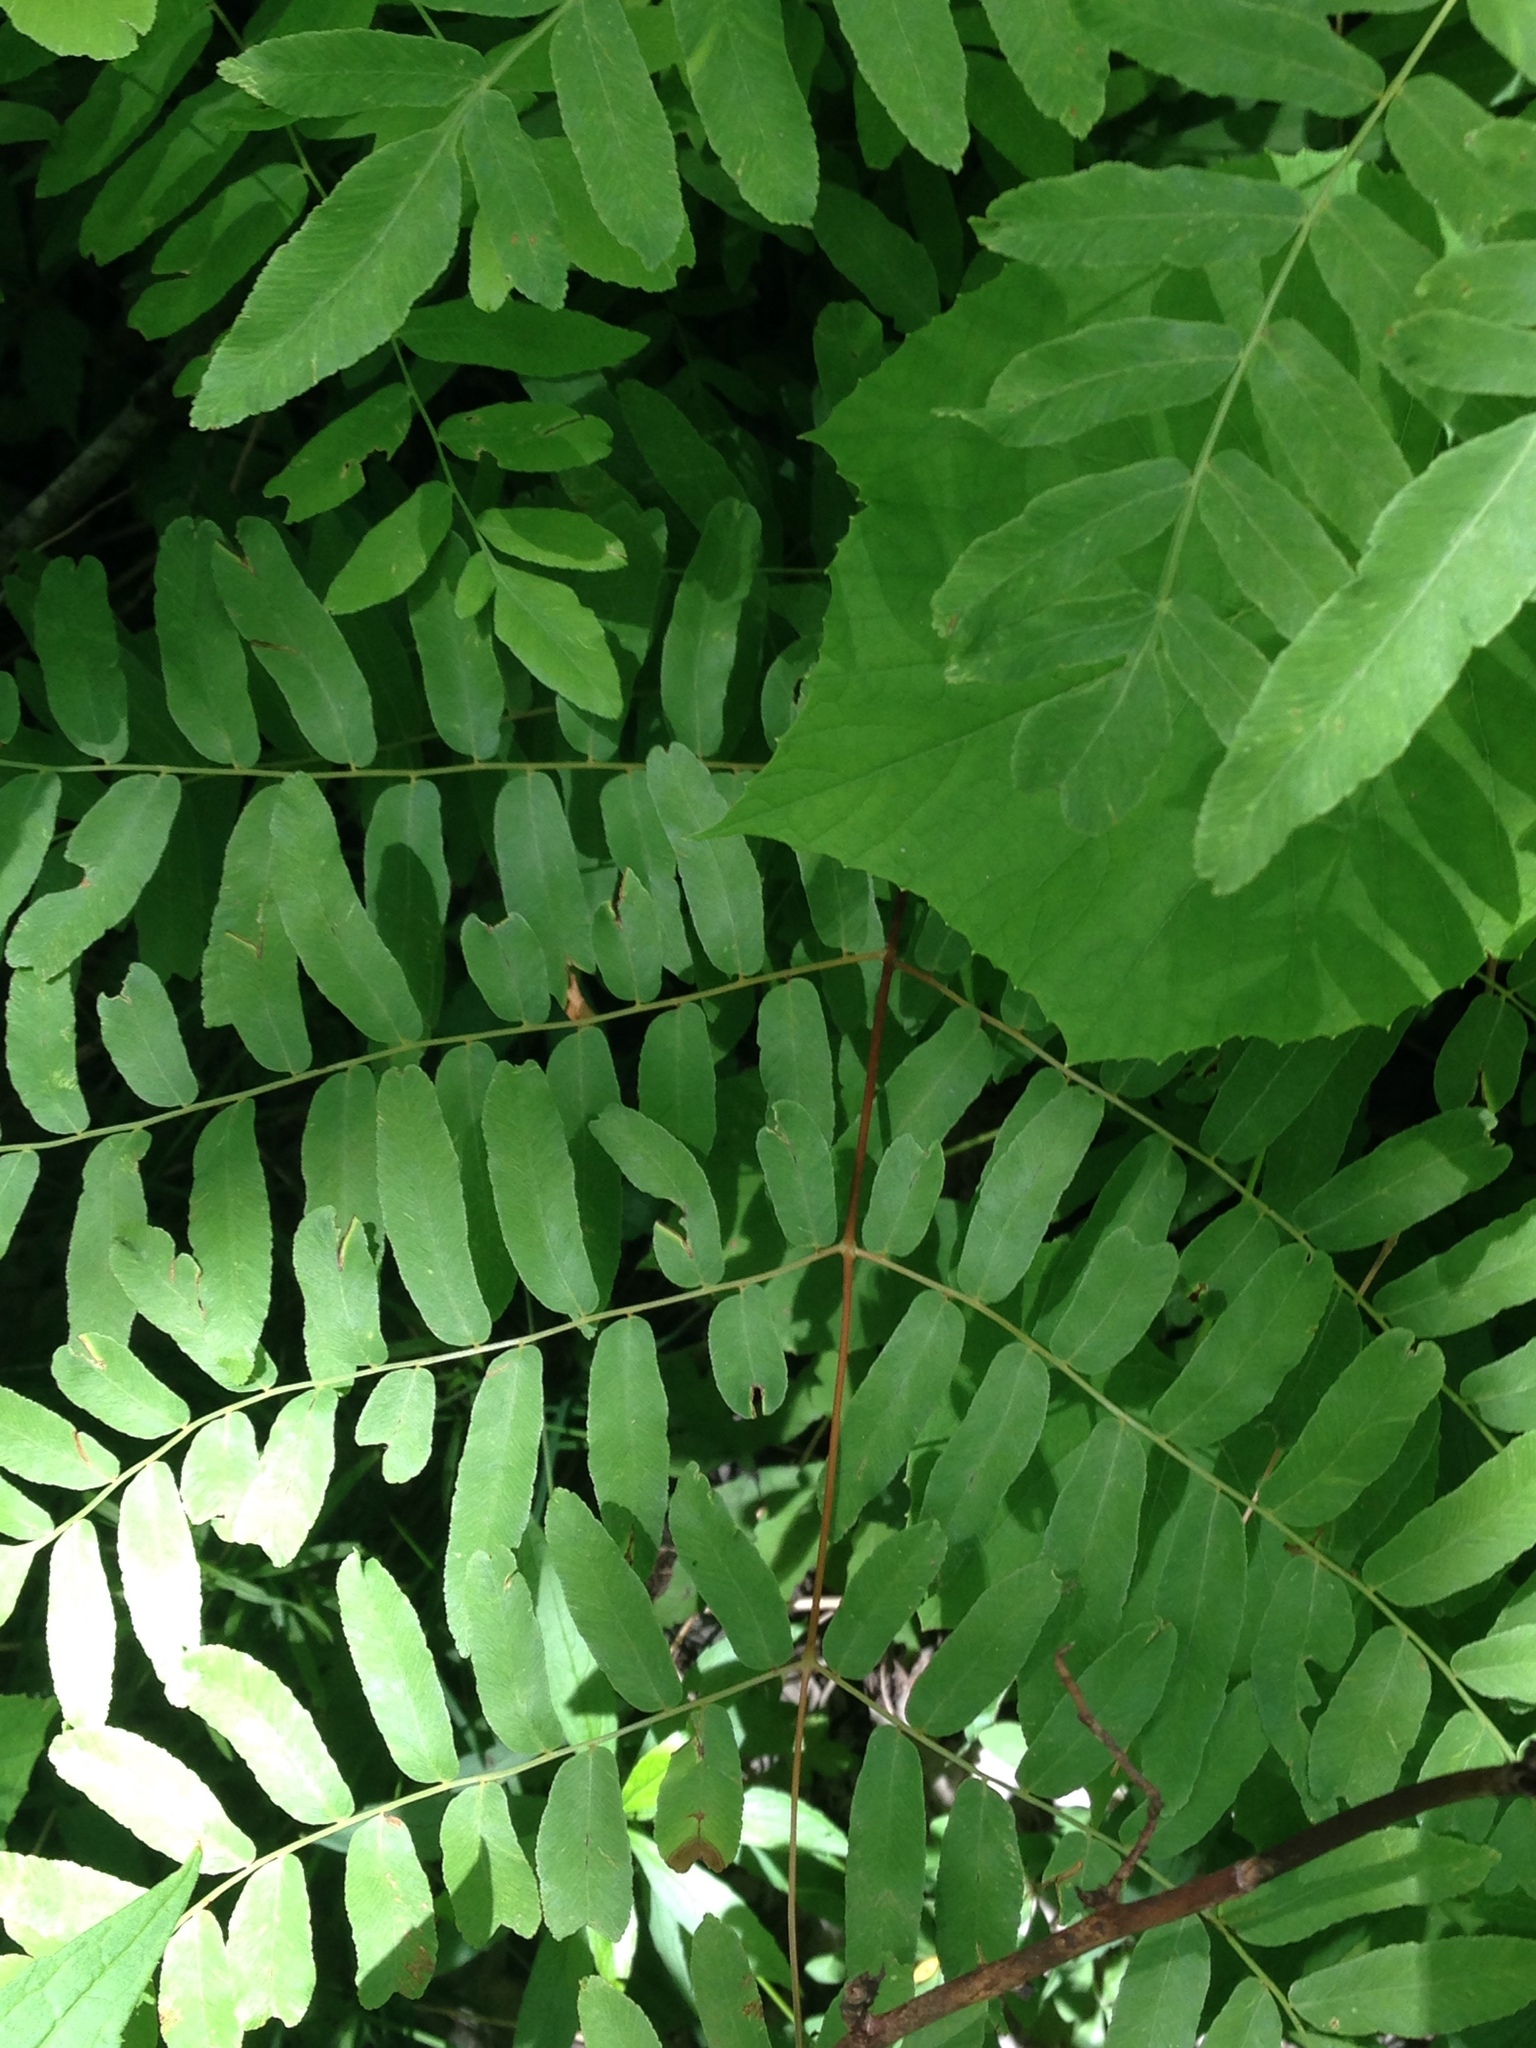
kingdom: Plantae
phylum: Tracheophyta
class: Polypodiopsida
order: Osmundales
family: Osmundaceae
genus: Osmunda
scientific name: Osmunda spectabilis
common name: American royal fern
